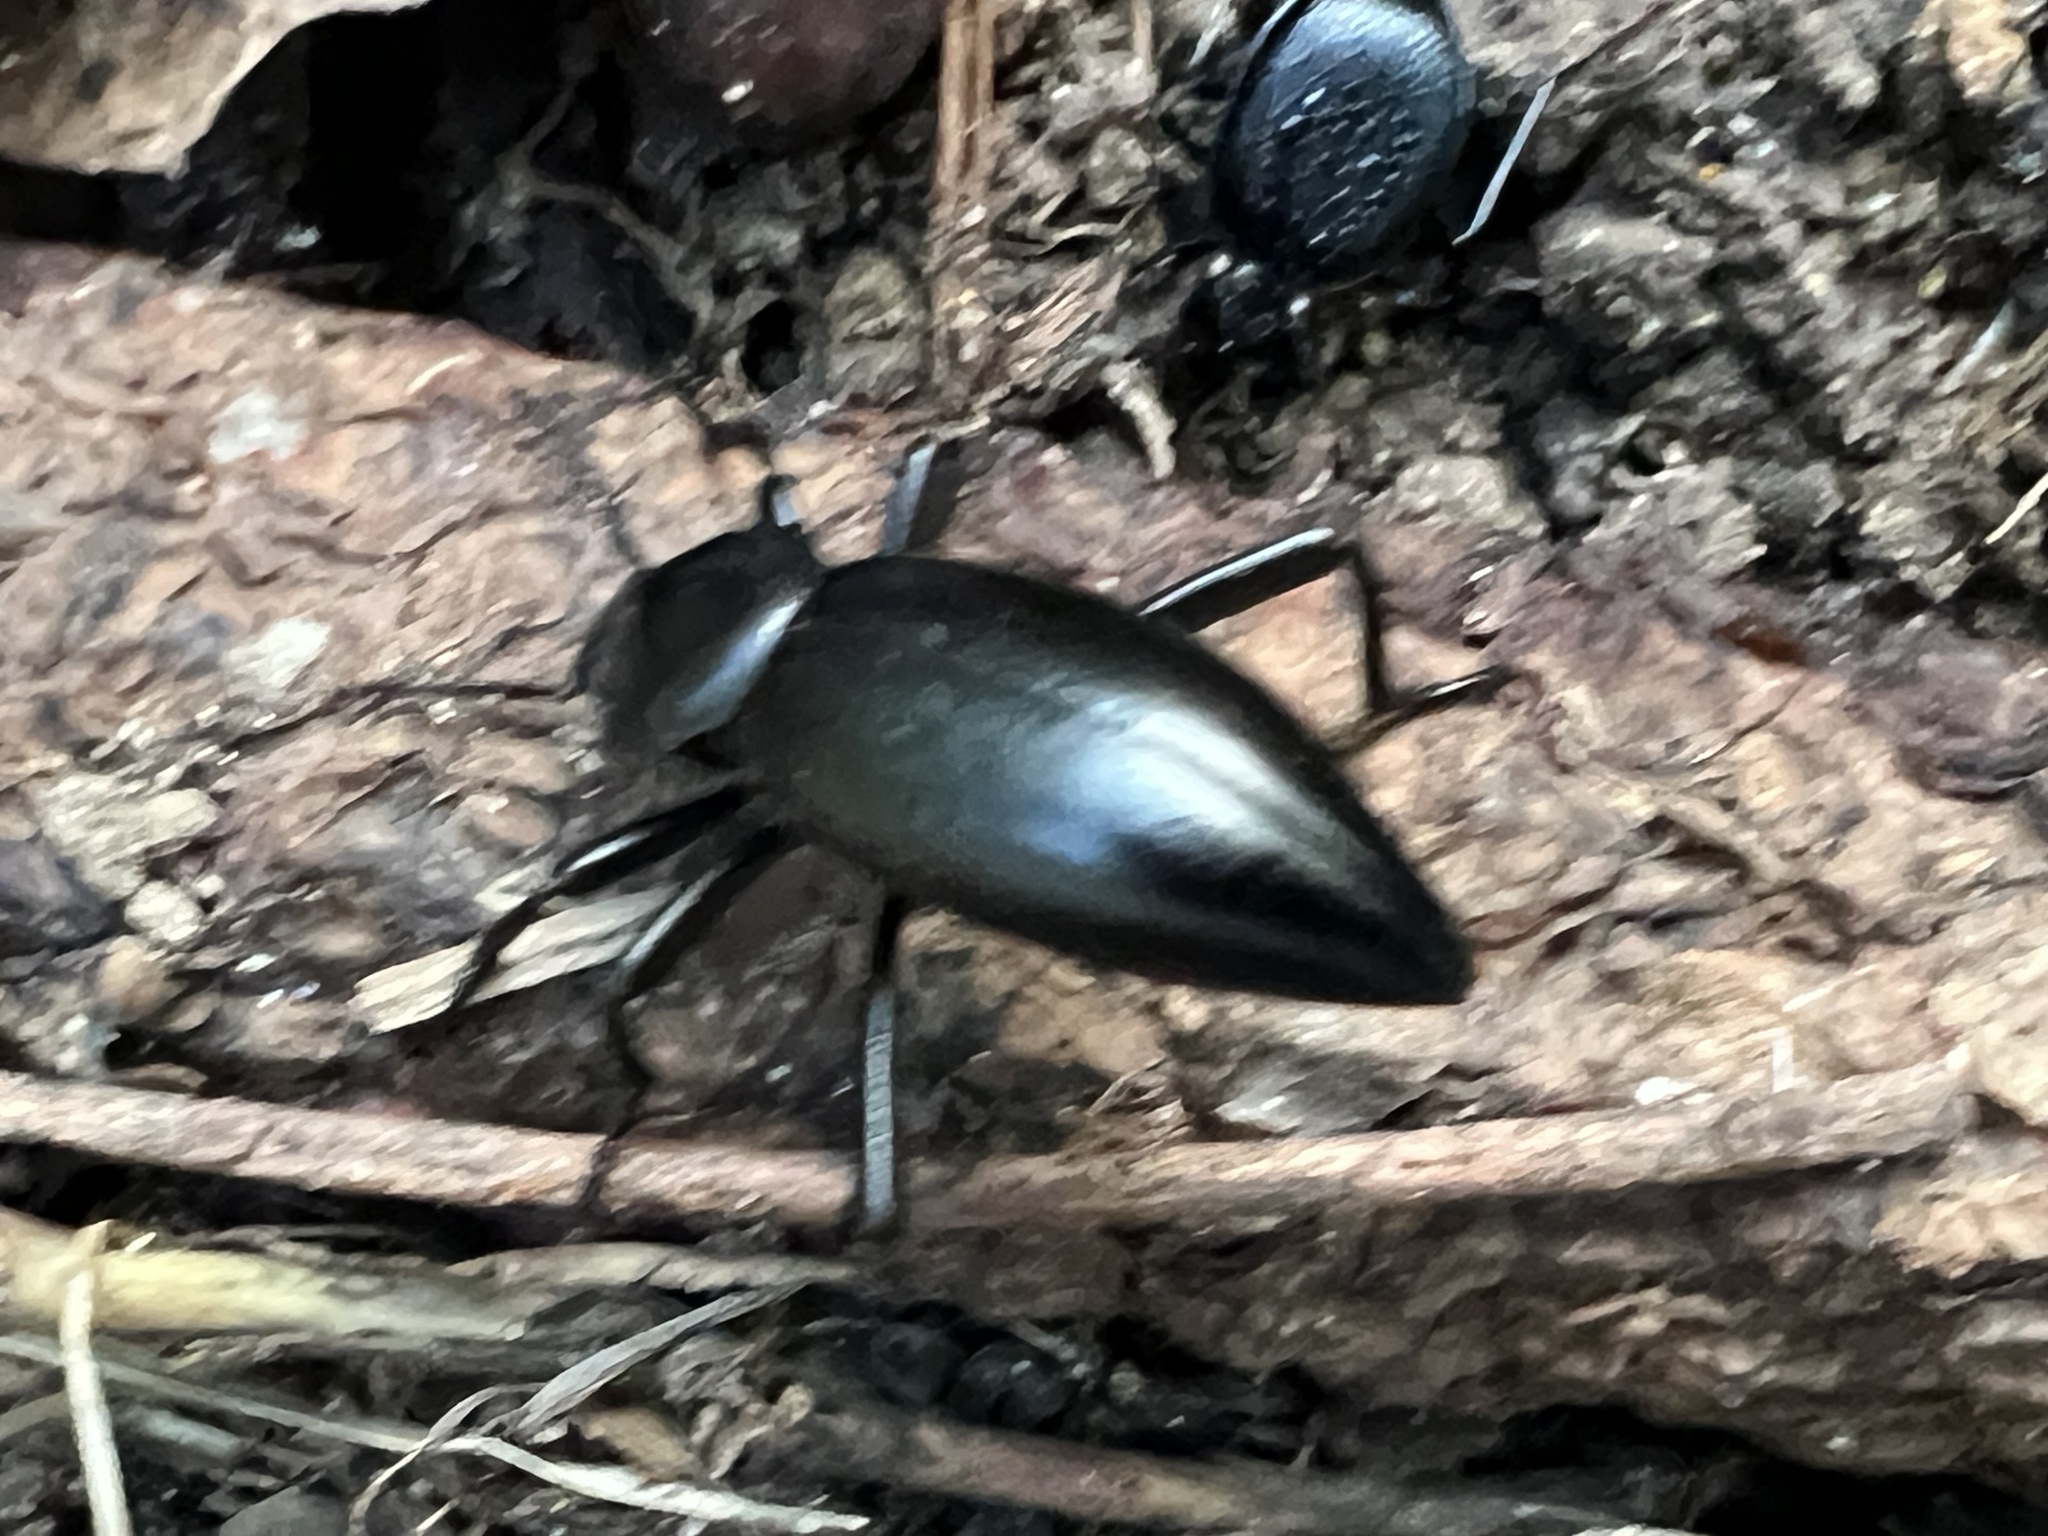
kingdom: Animalia
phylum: Arthropoda
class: Insecta
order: Coleoptera
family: Tenebrionidae
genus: Eleodes
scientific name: Eleodes acuticauda
